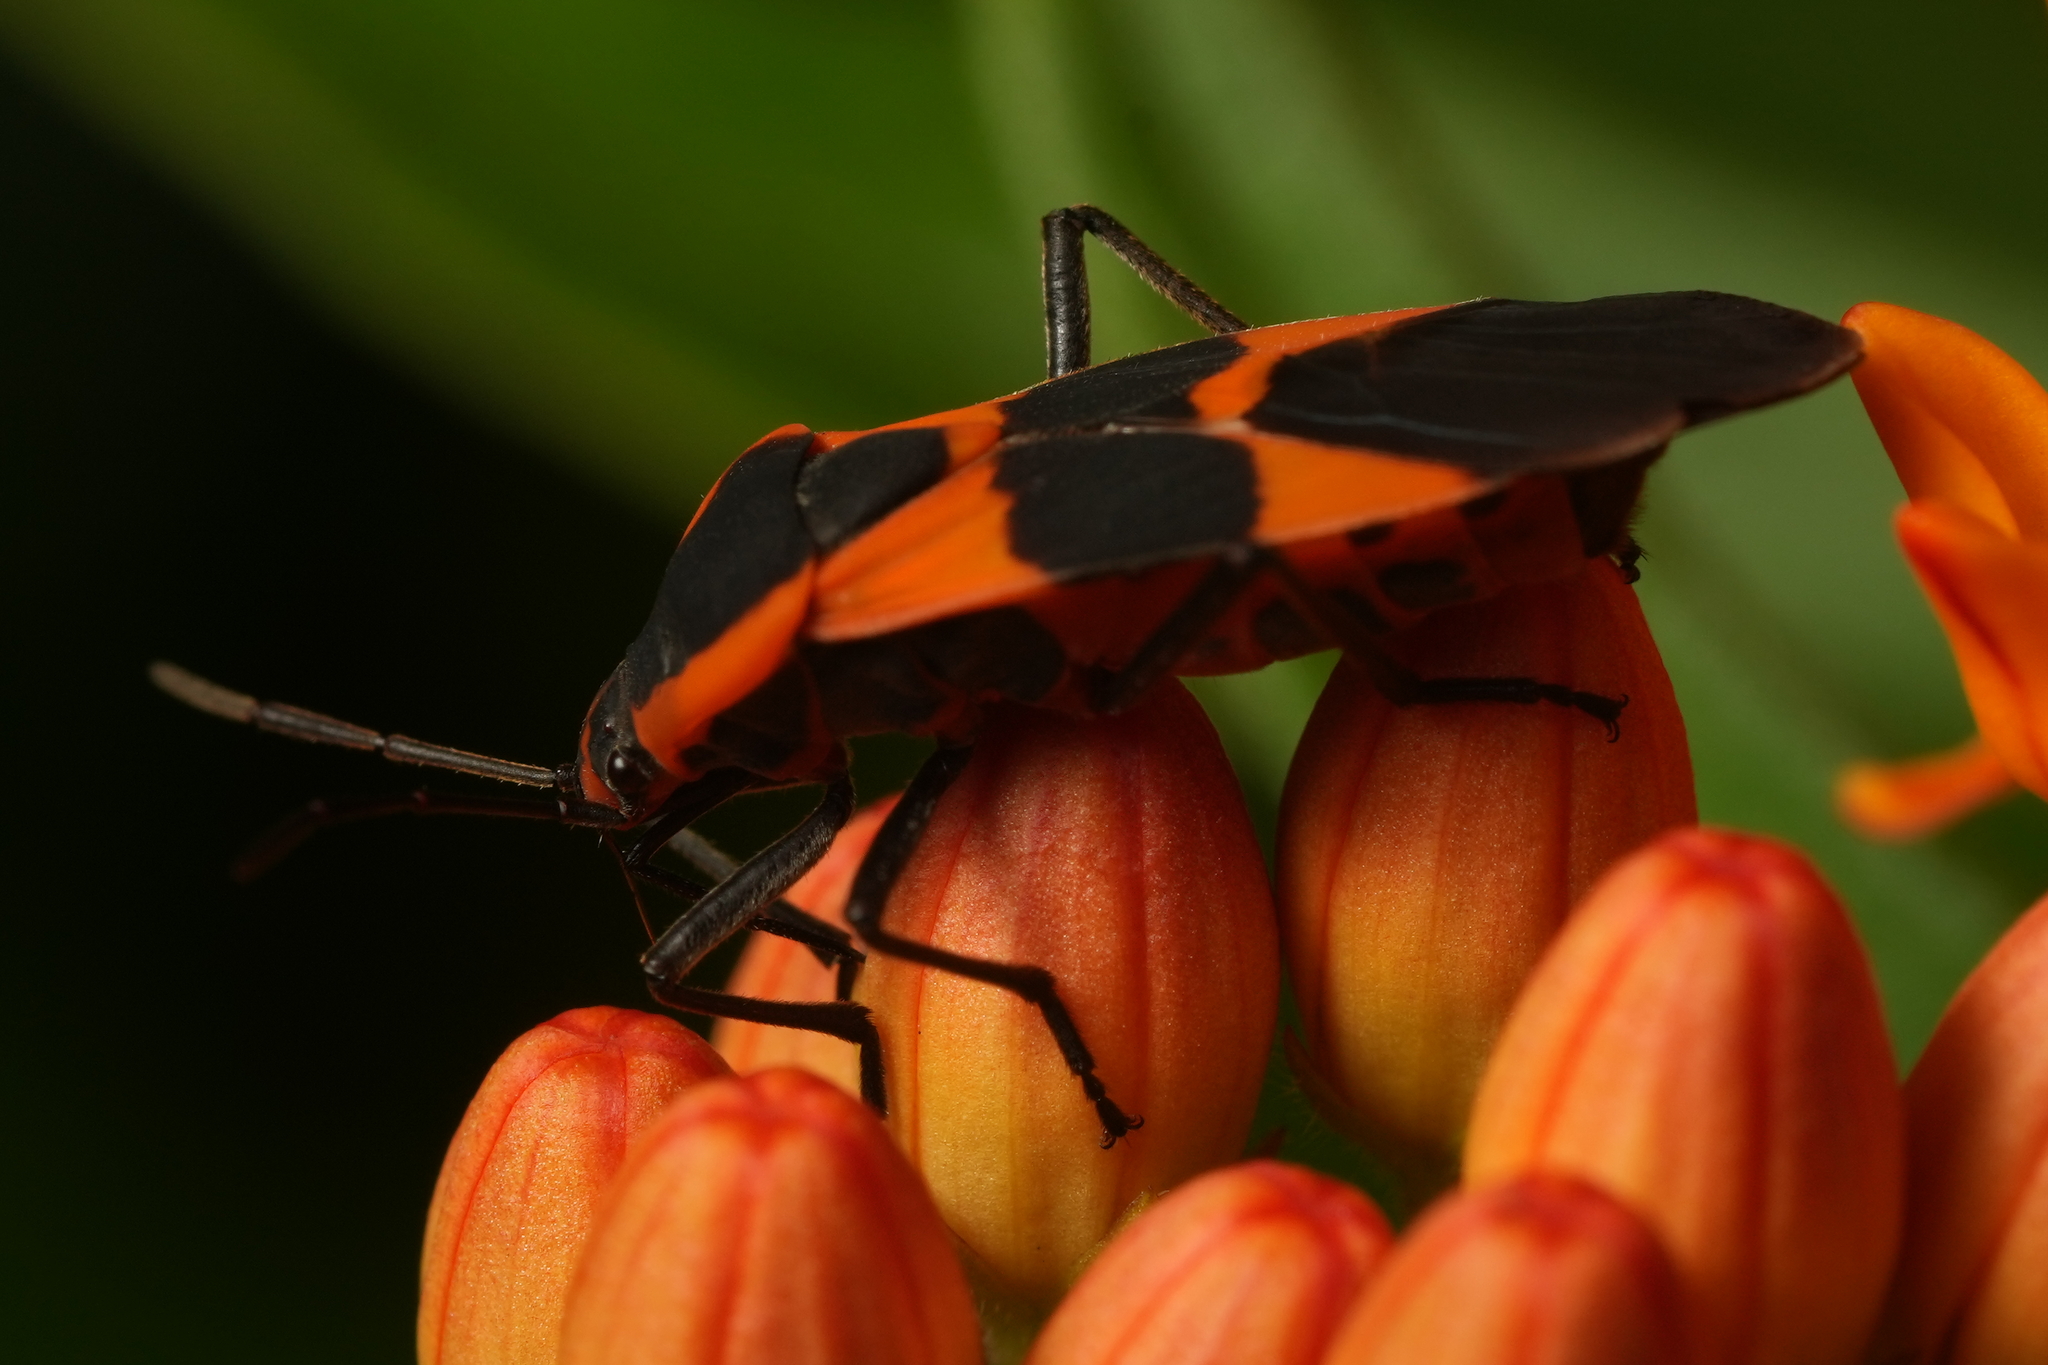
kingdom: Animalia
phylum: Arthropoda
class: Insecta
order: Hemiptera
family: Lygaeidae
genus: Oncopeltus
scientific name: Oncopeltus fasciatus
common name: Large milkweed bug
